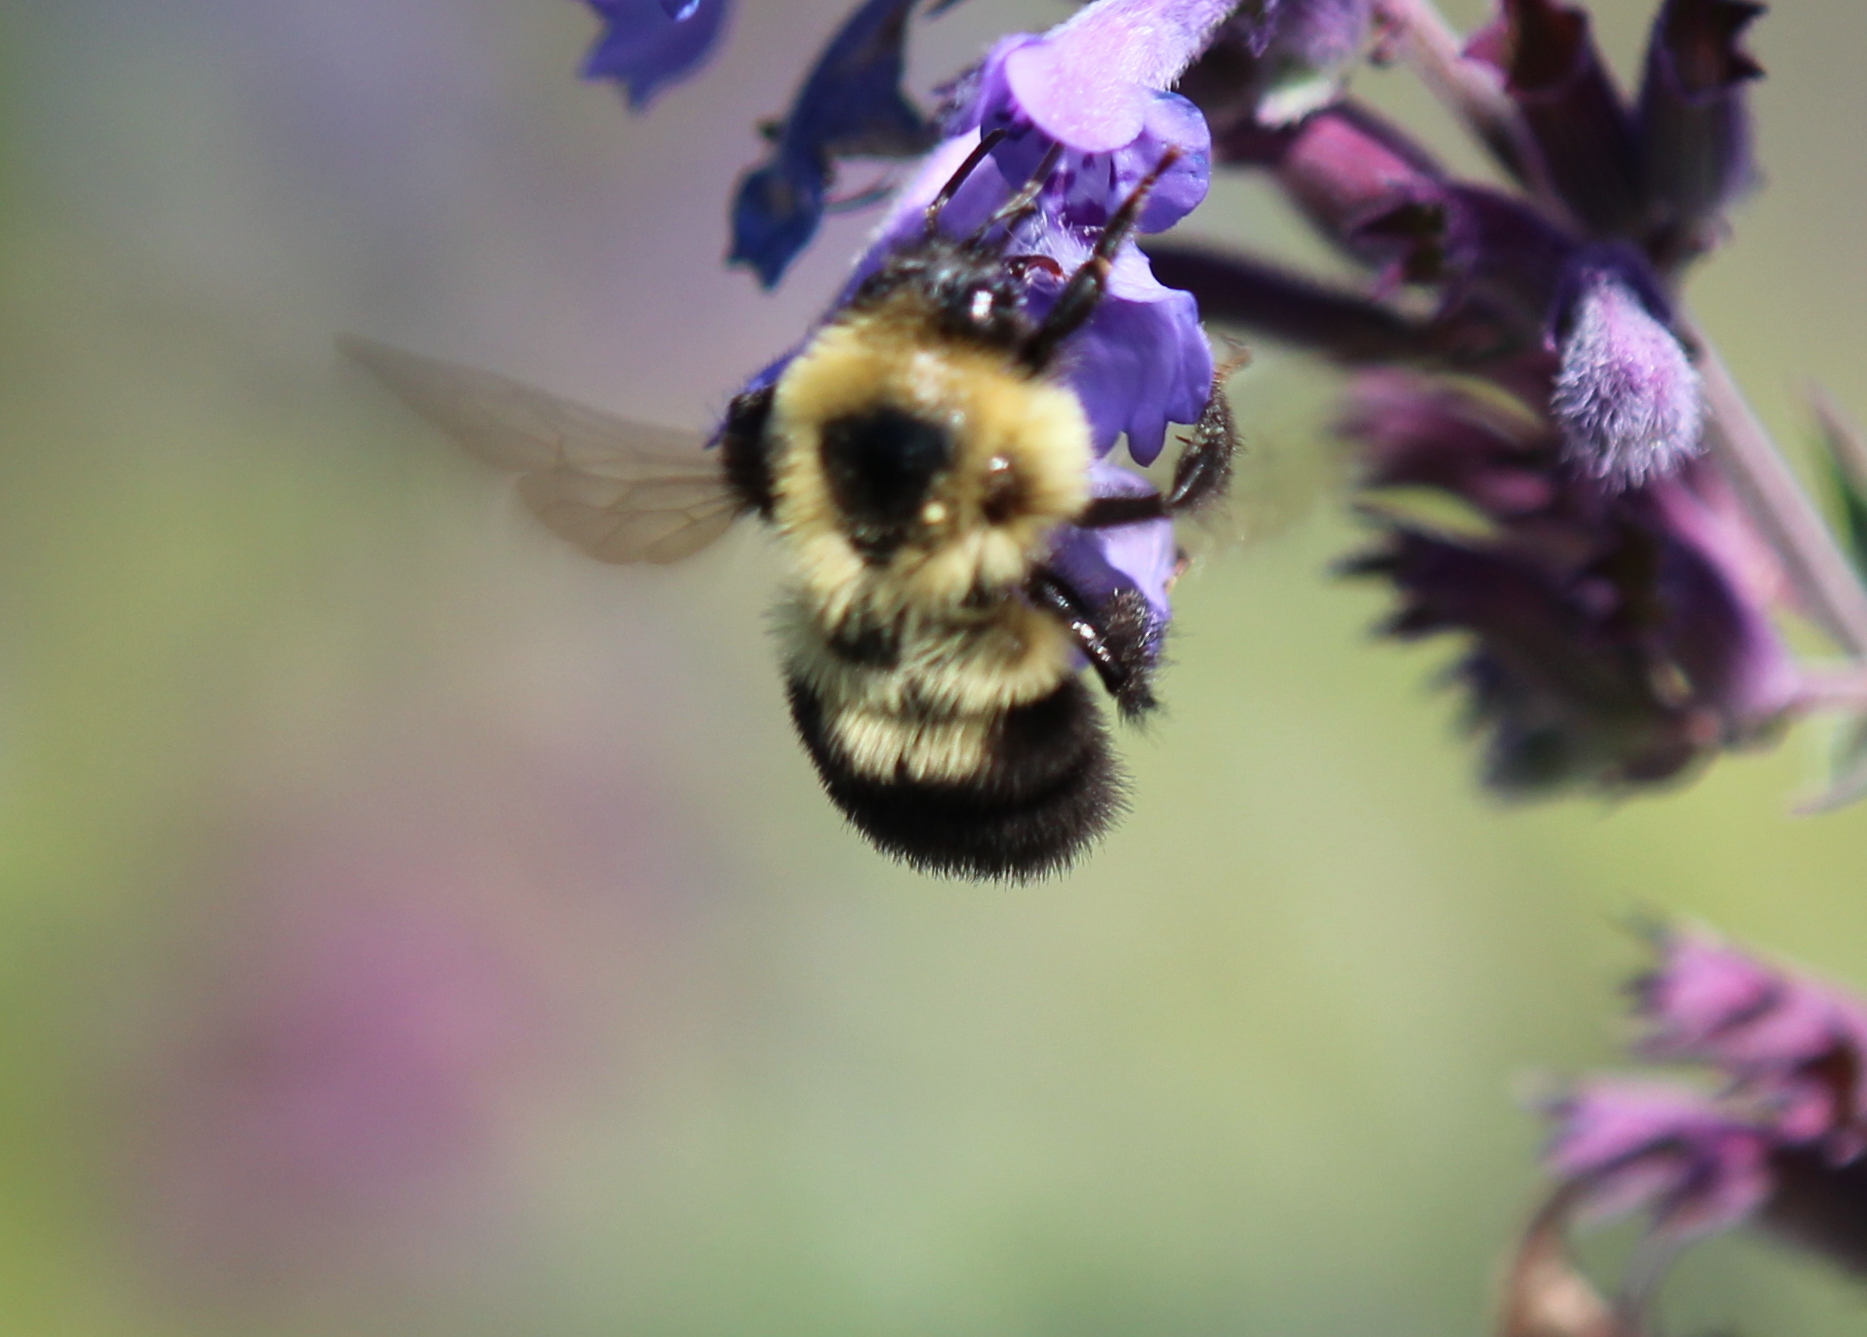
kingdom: Animalia
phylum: Arthropoda
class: Insecta
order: Hymenoptera
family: Apidae
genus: Bombus
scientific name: Bombus bimaculatus
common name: Two-spotted bumble bee
